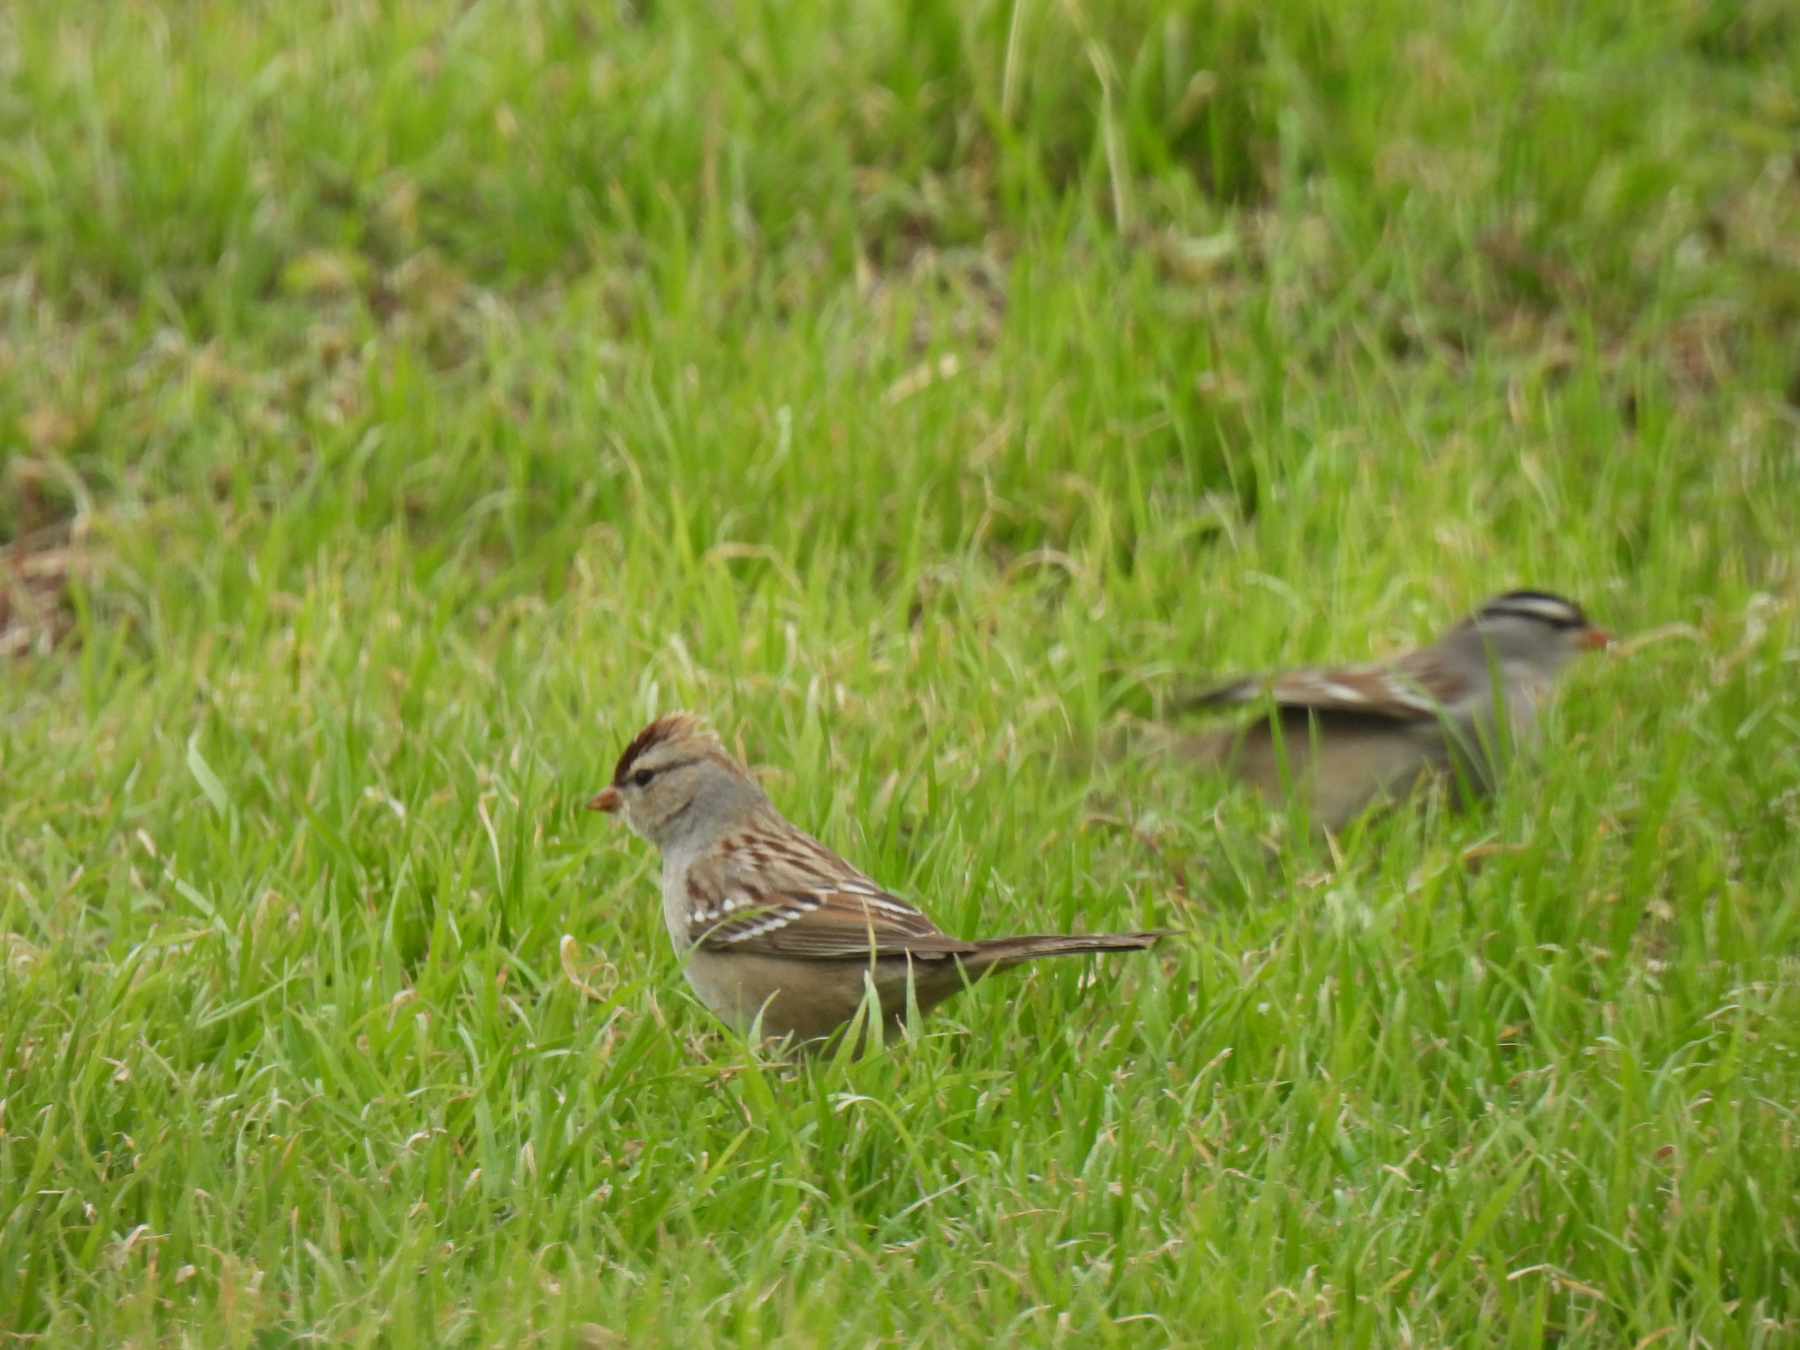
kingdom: Animalia
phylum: Chordata
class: Aves
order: Passeriformes
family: Passerellidae
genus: Zonotrichia
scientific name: Zonotrichia leucophrys
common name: White-crowned sparrow
